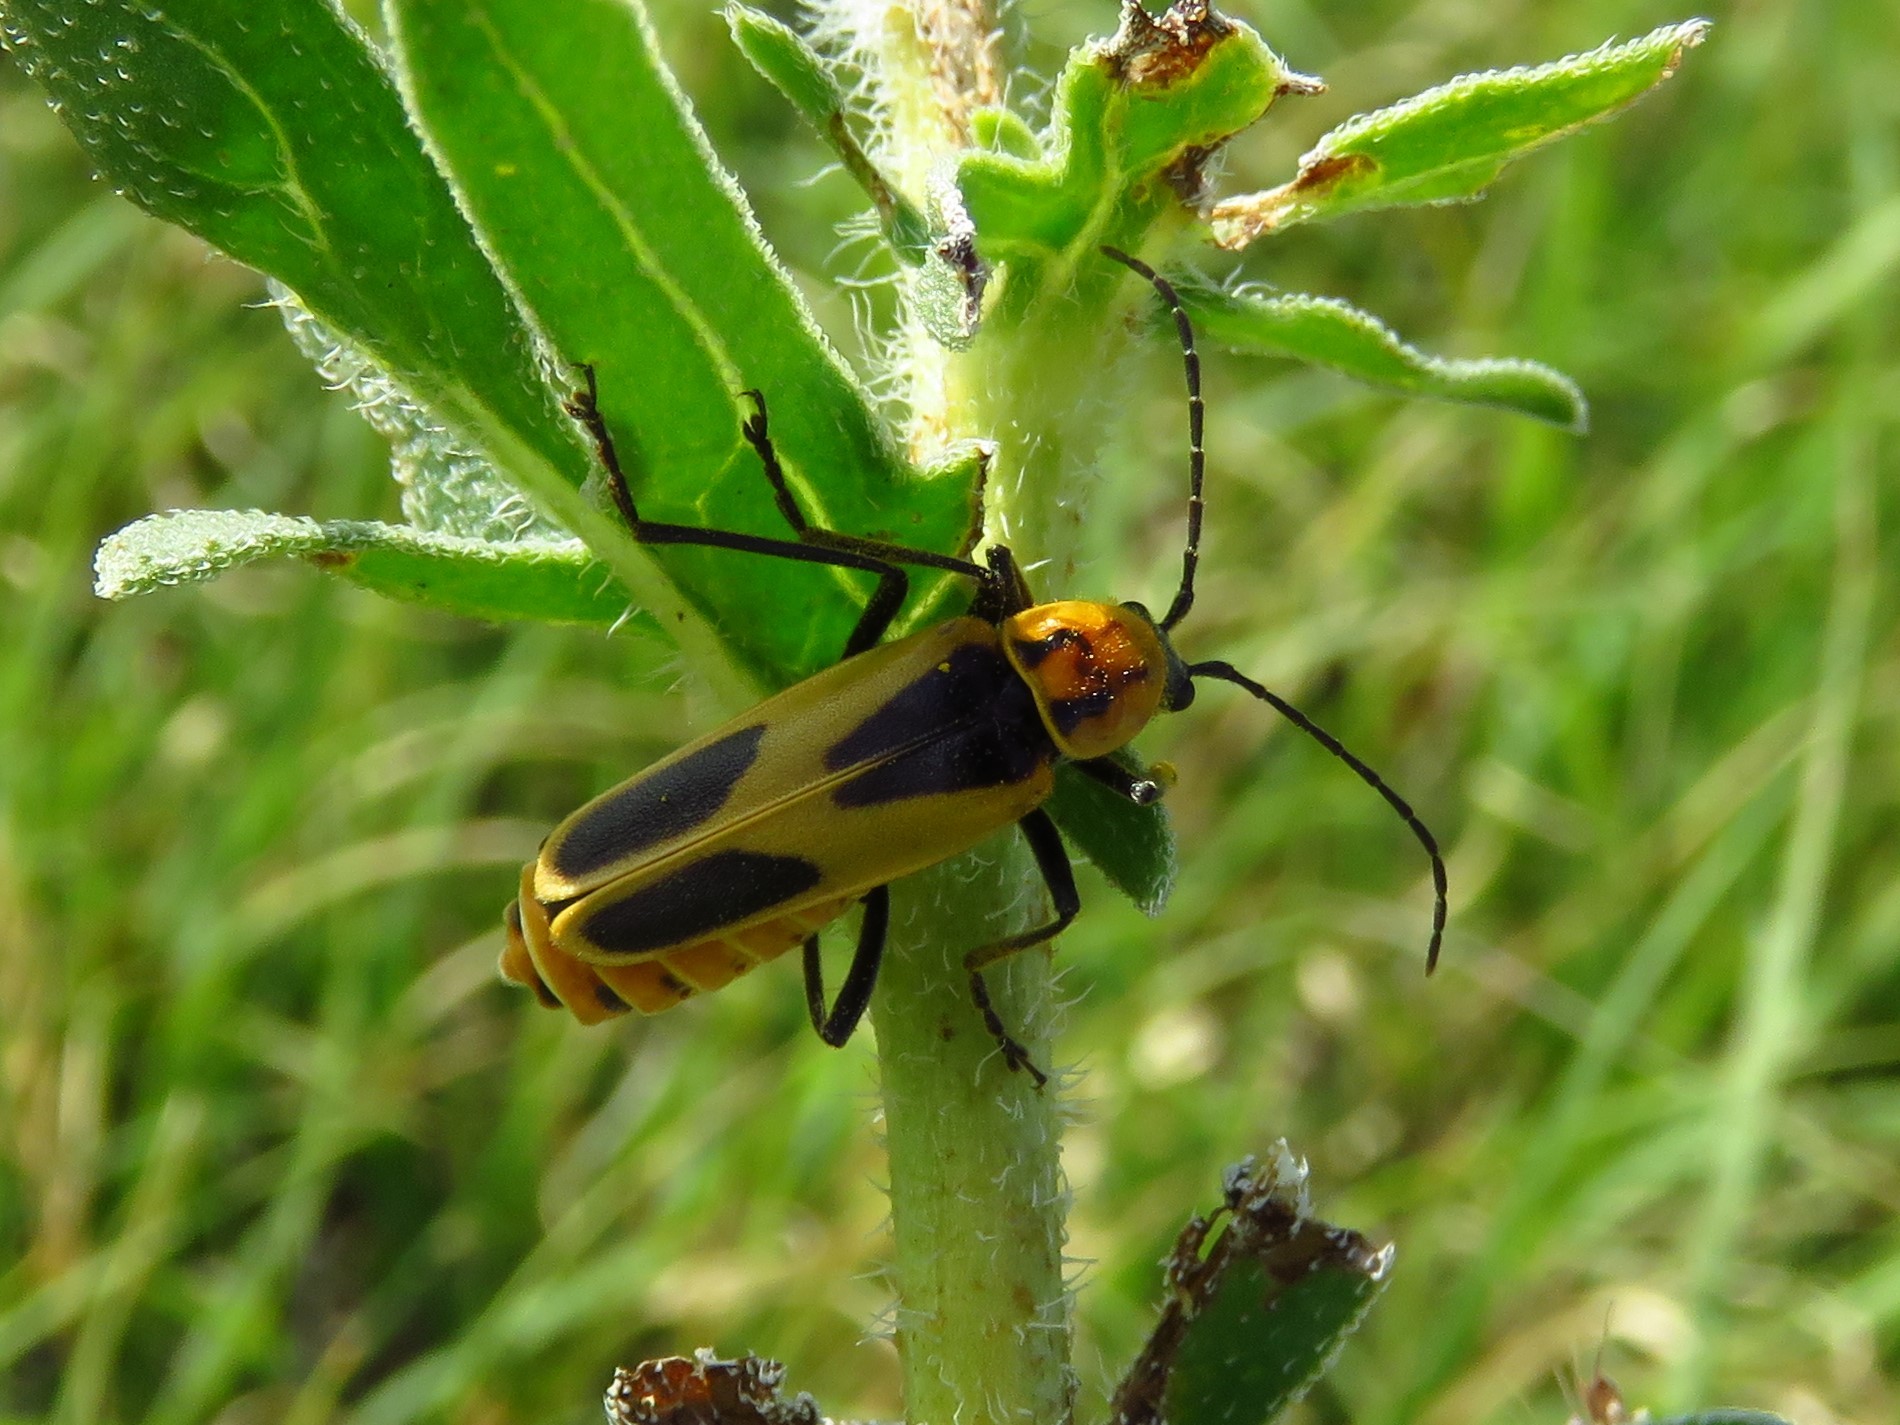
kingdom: Animalia
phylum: Arthropoda
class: Insecta
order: Coleoptera
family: Cantharidae
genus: Chauliognathus
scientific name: Chauliognathus scutellaris
